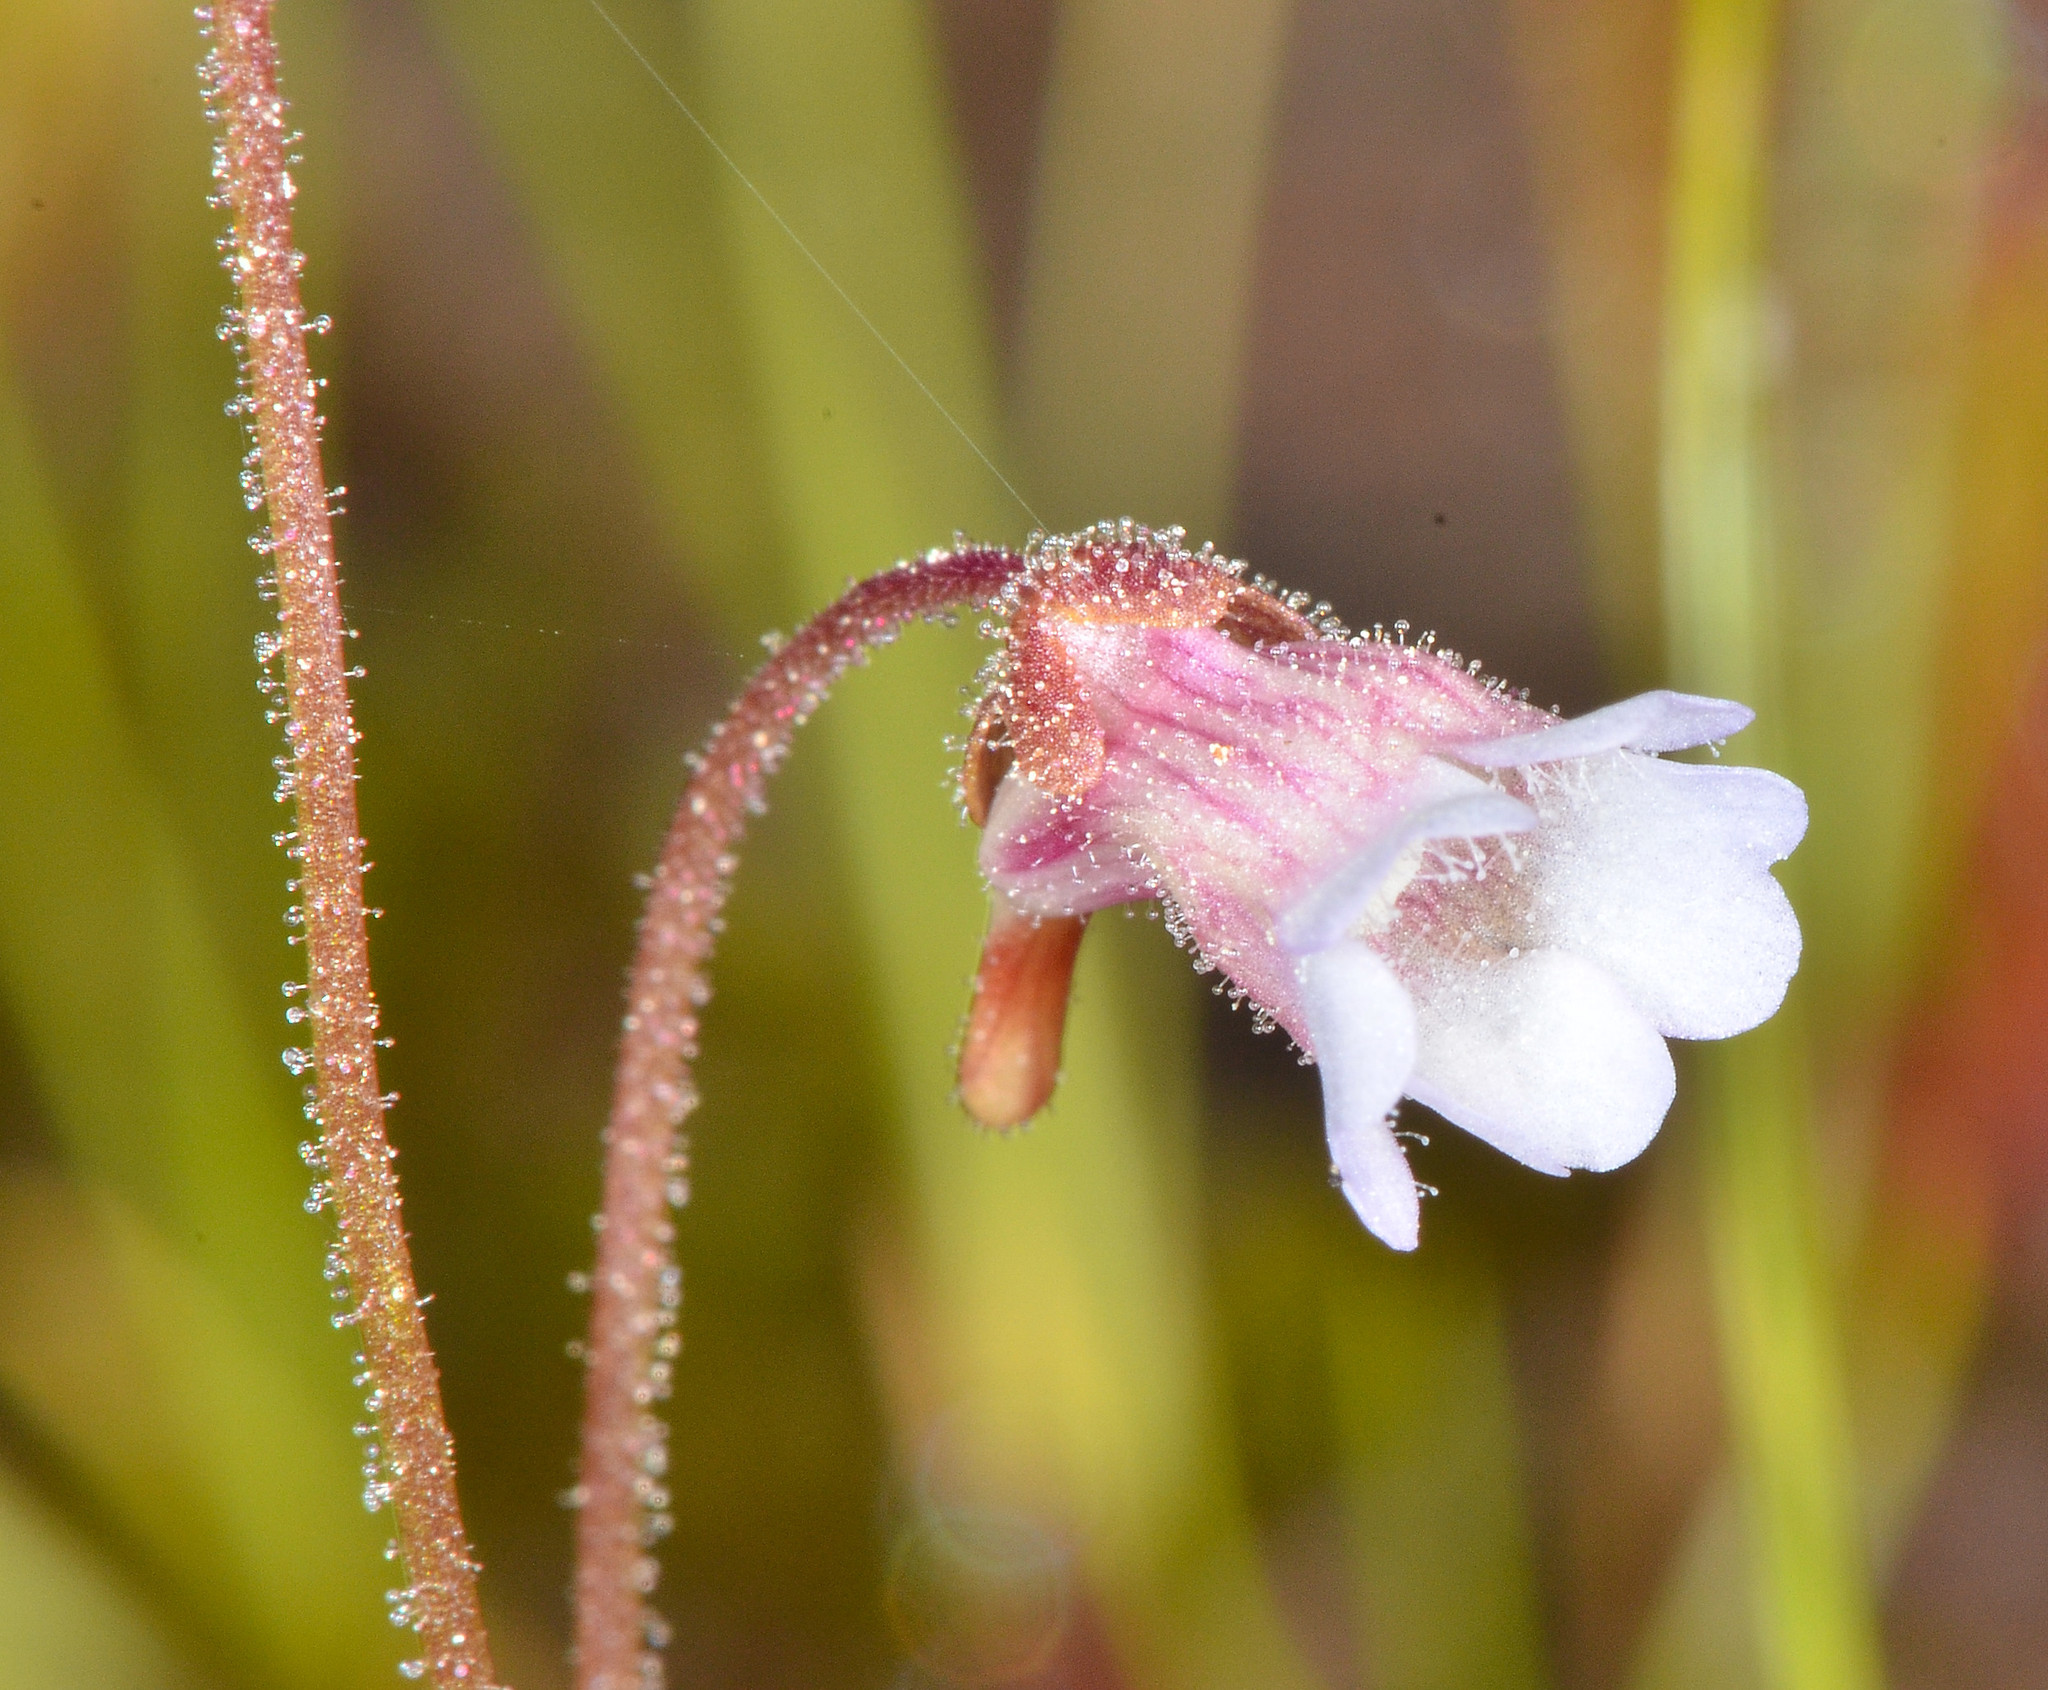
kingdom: Plantae
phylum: Tracheophyta
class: Magnoliopsida
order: Lamiales
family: Lentibulariaceae
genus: Pinguicula
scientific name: Pinguicula lusitanica
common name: Pale butterwort
